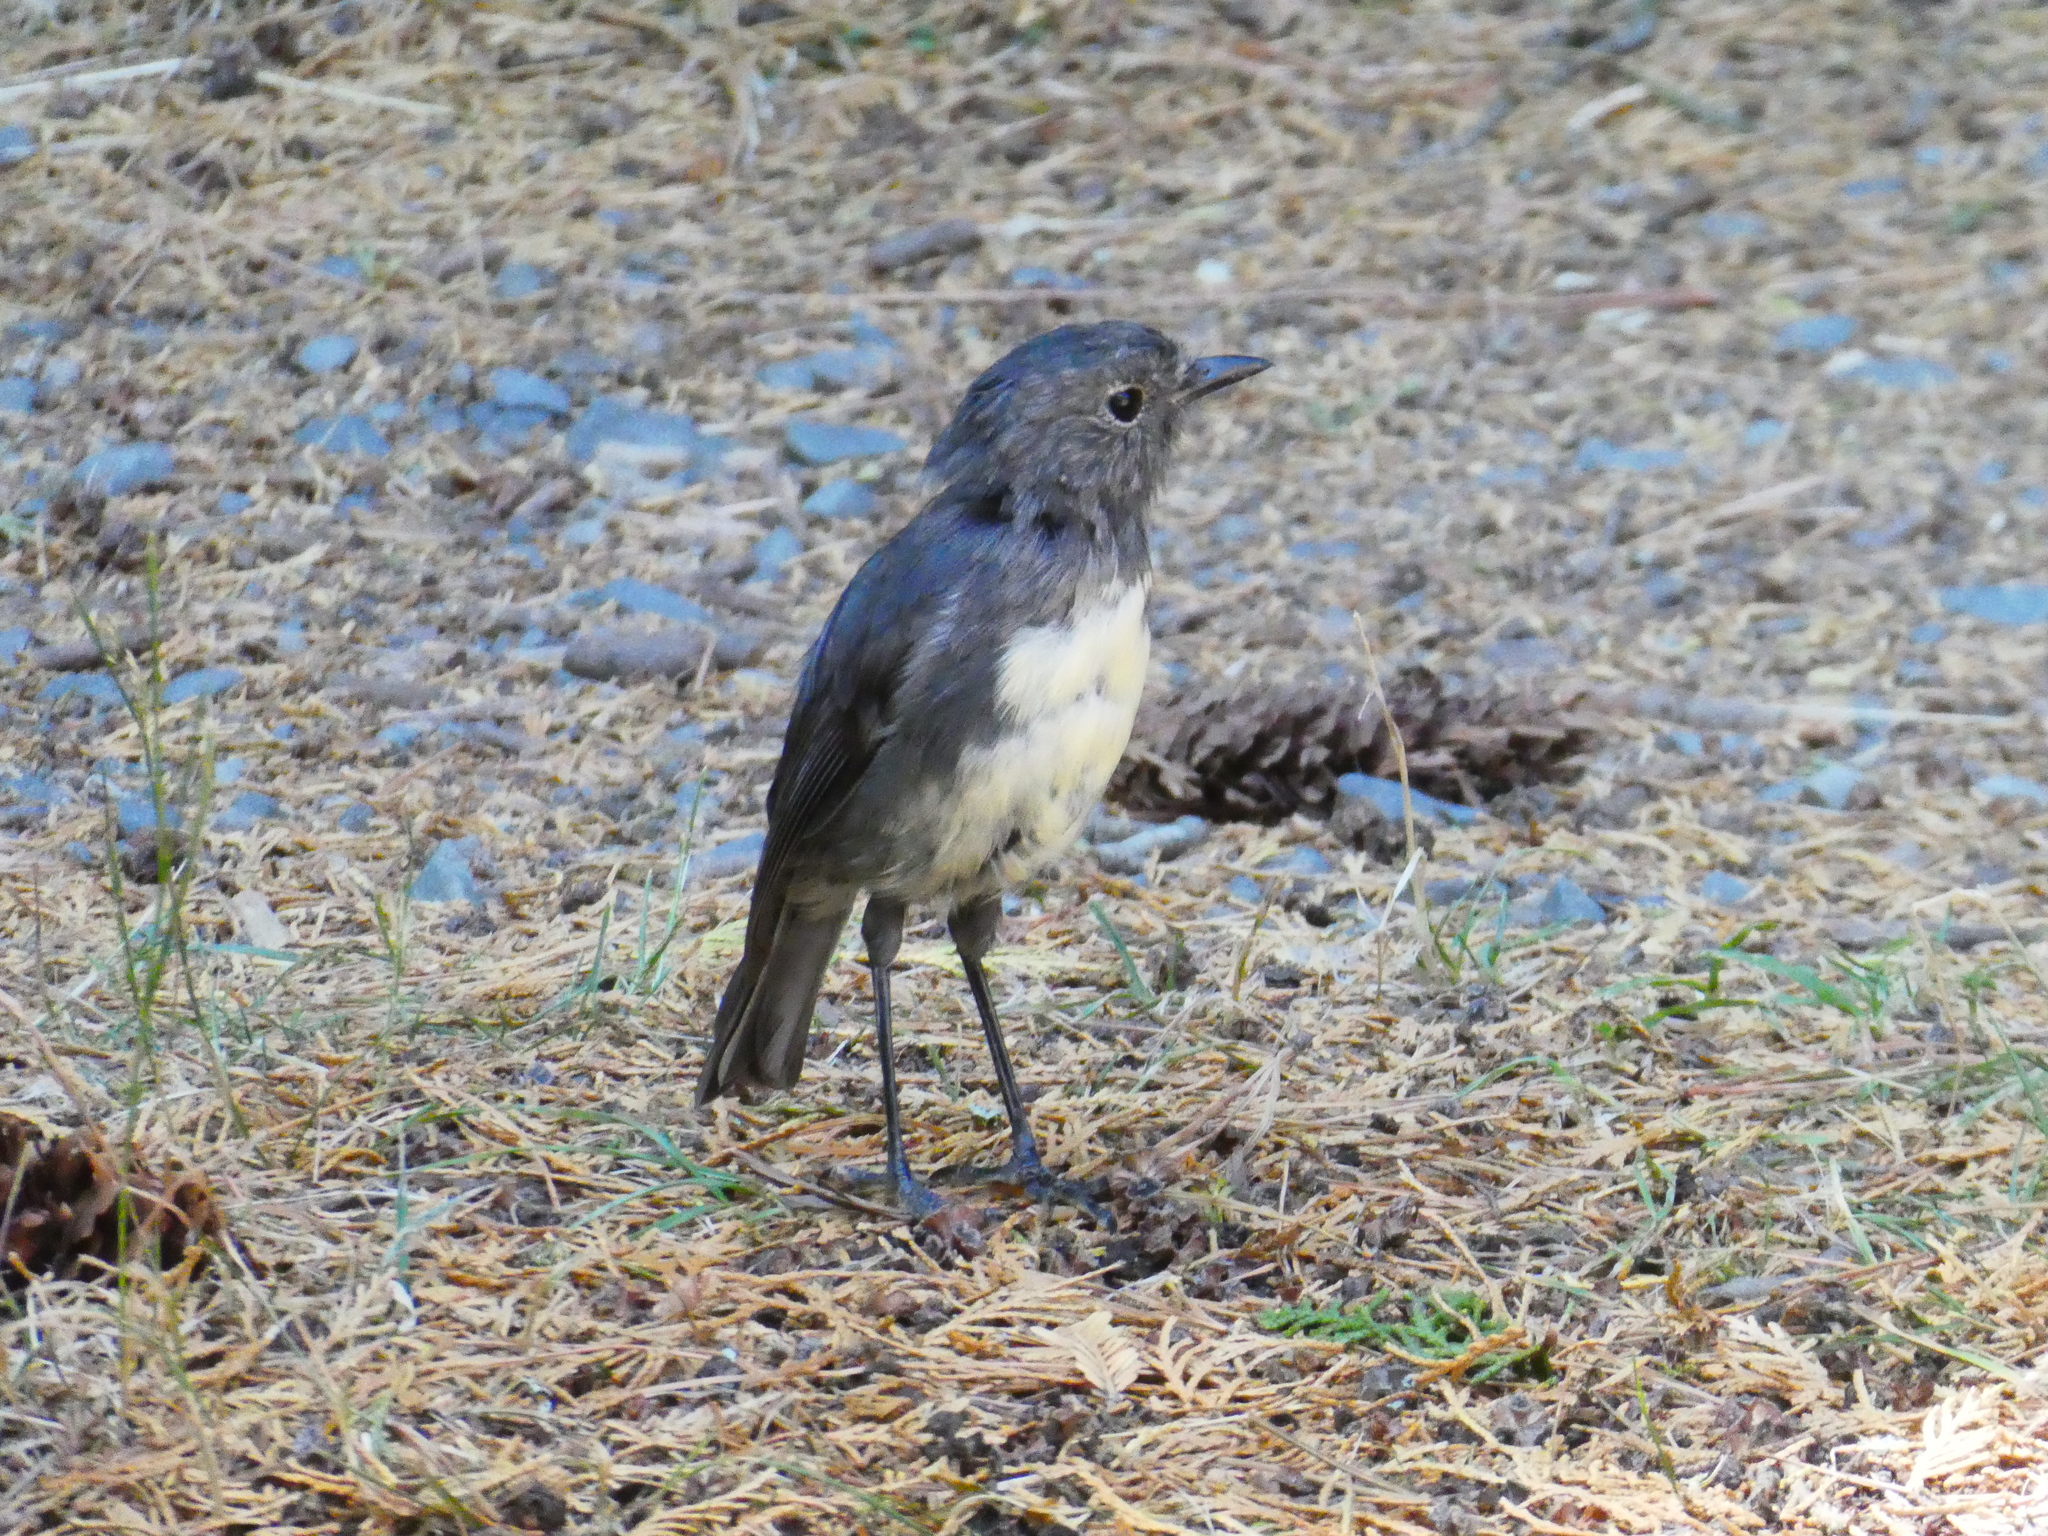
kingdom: Animalia
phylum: Chordata
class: Aves
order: Passeriformes
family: Petroicidae
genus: Petroica
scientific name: Petroica australis
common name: New zealand robin
